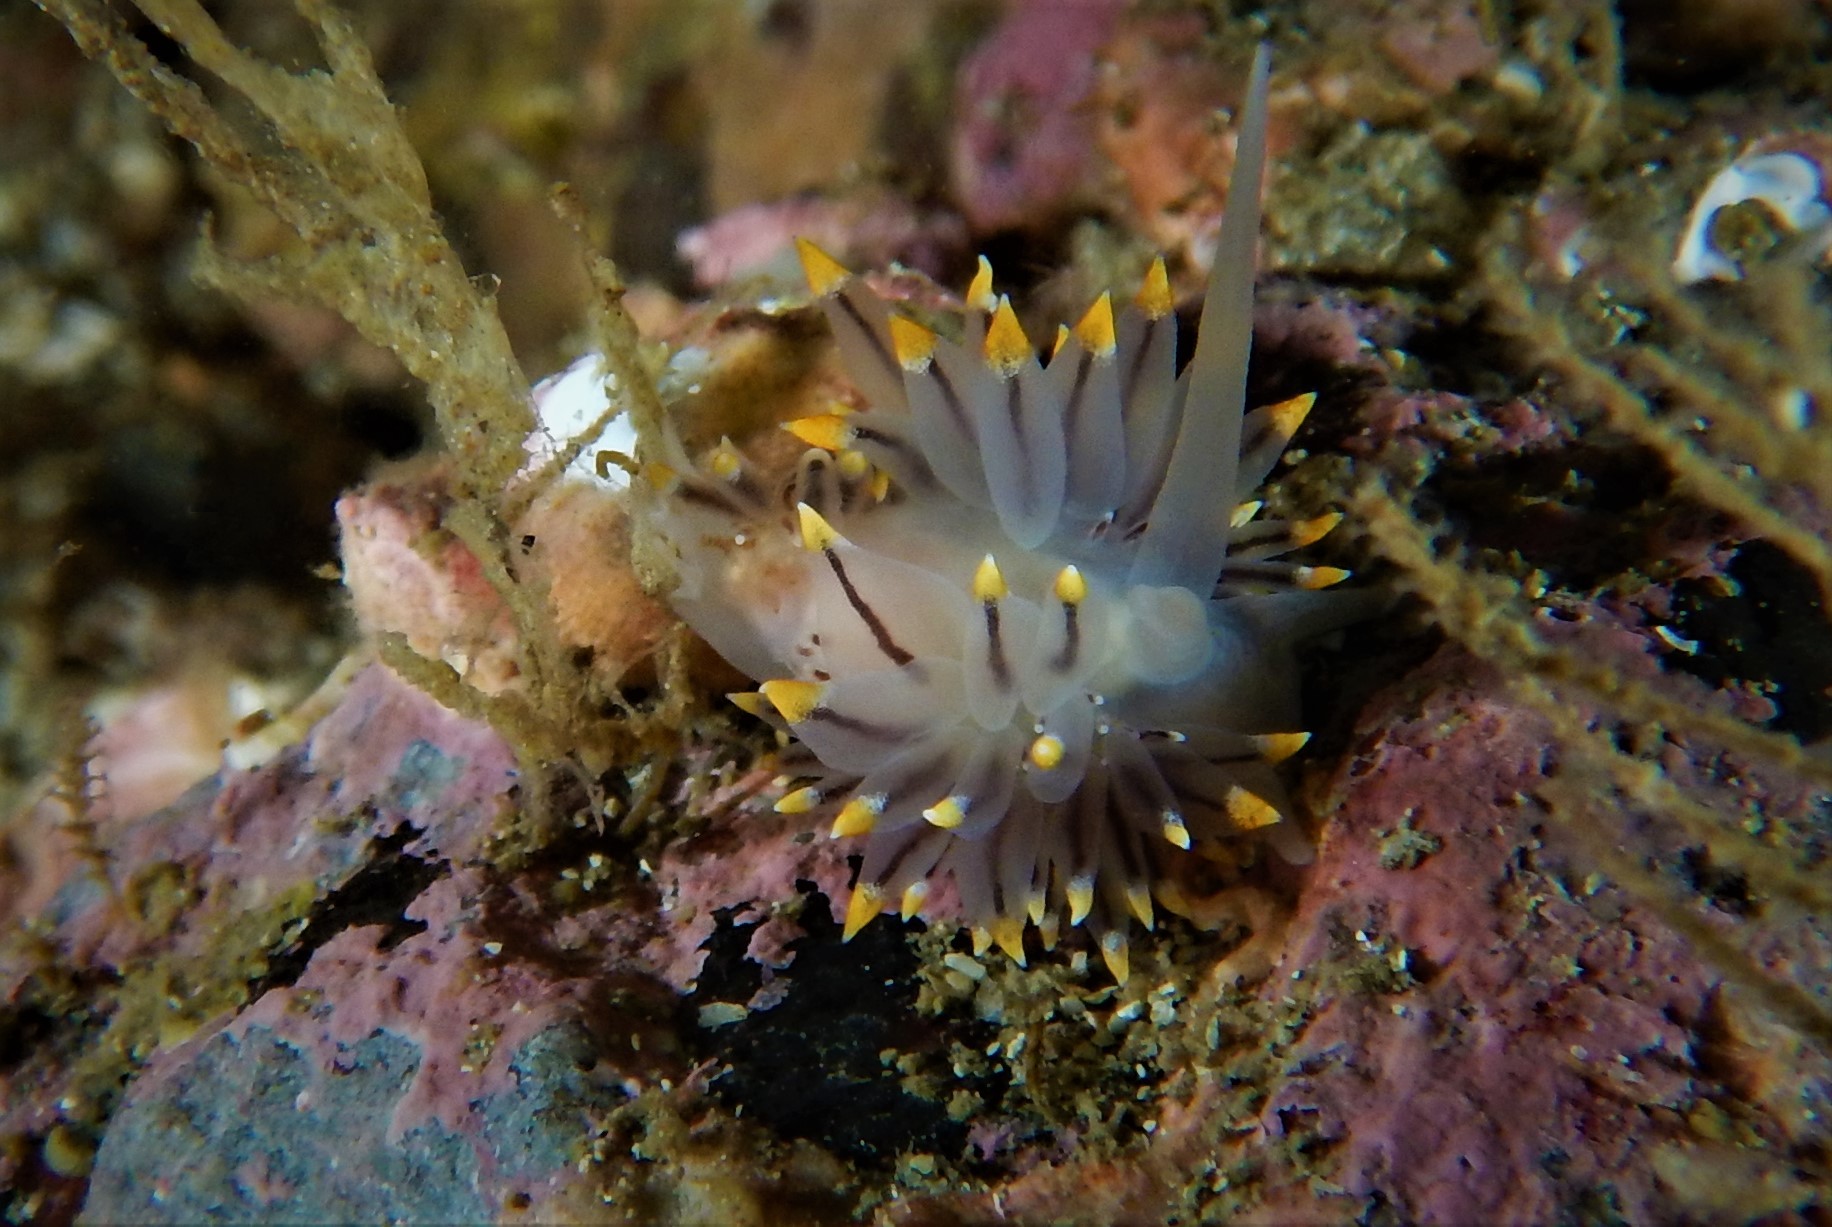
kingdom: Animalia
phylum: Mollusca
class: Gastropoda
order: Nudibranchia
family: Eubranchidae
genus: Eubranchus
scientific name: Eubranchus tricolor
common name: Painted balloon aeolis
